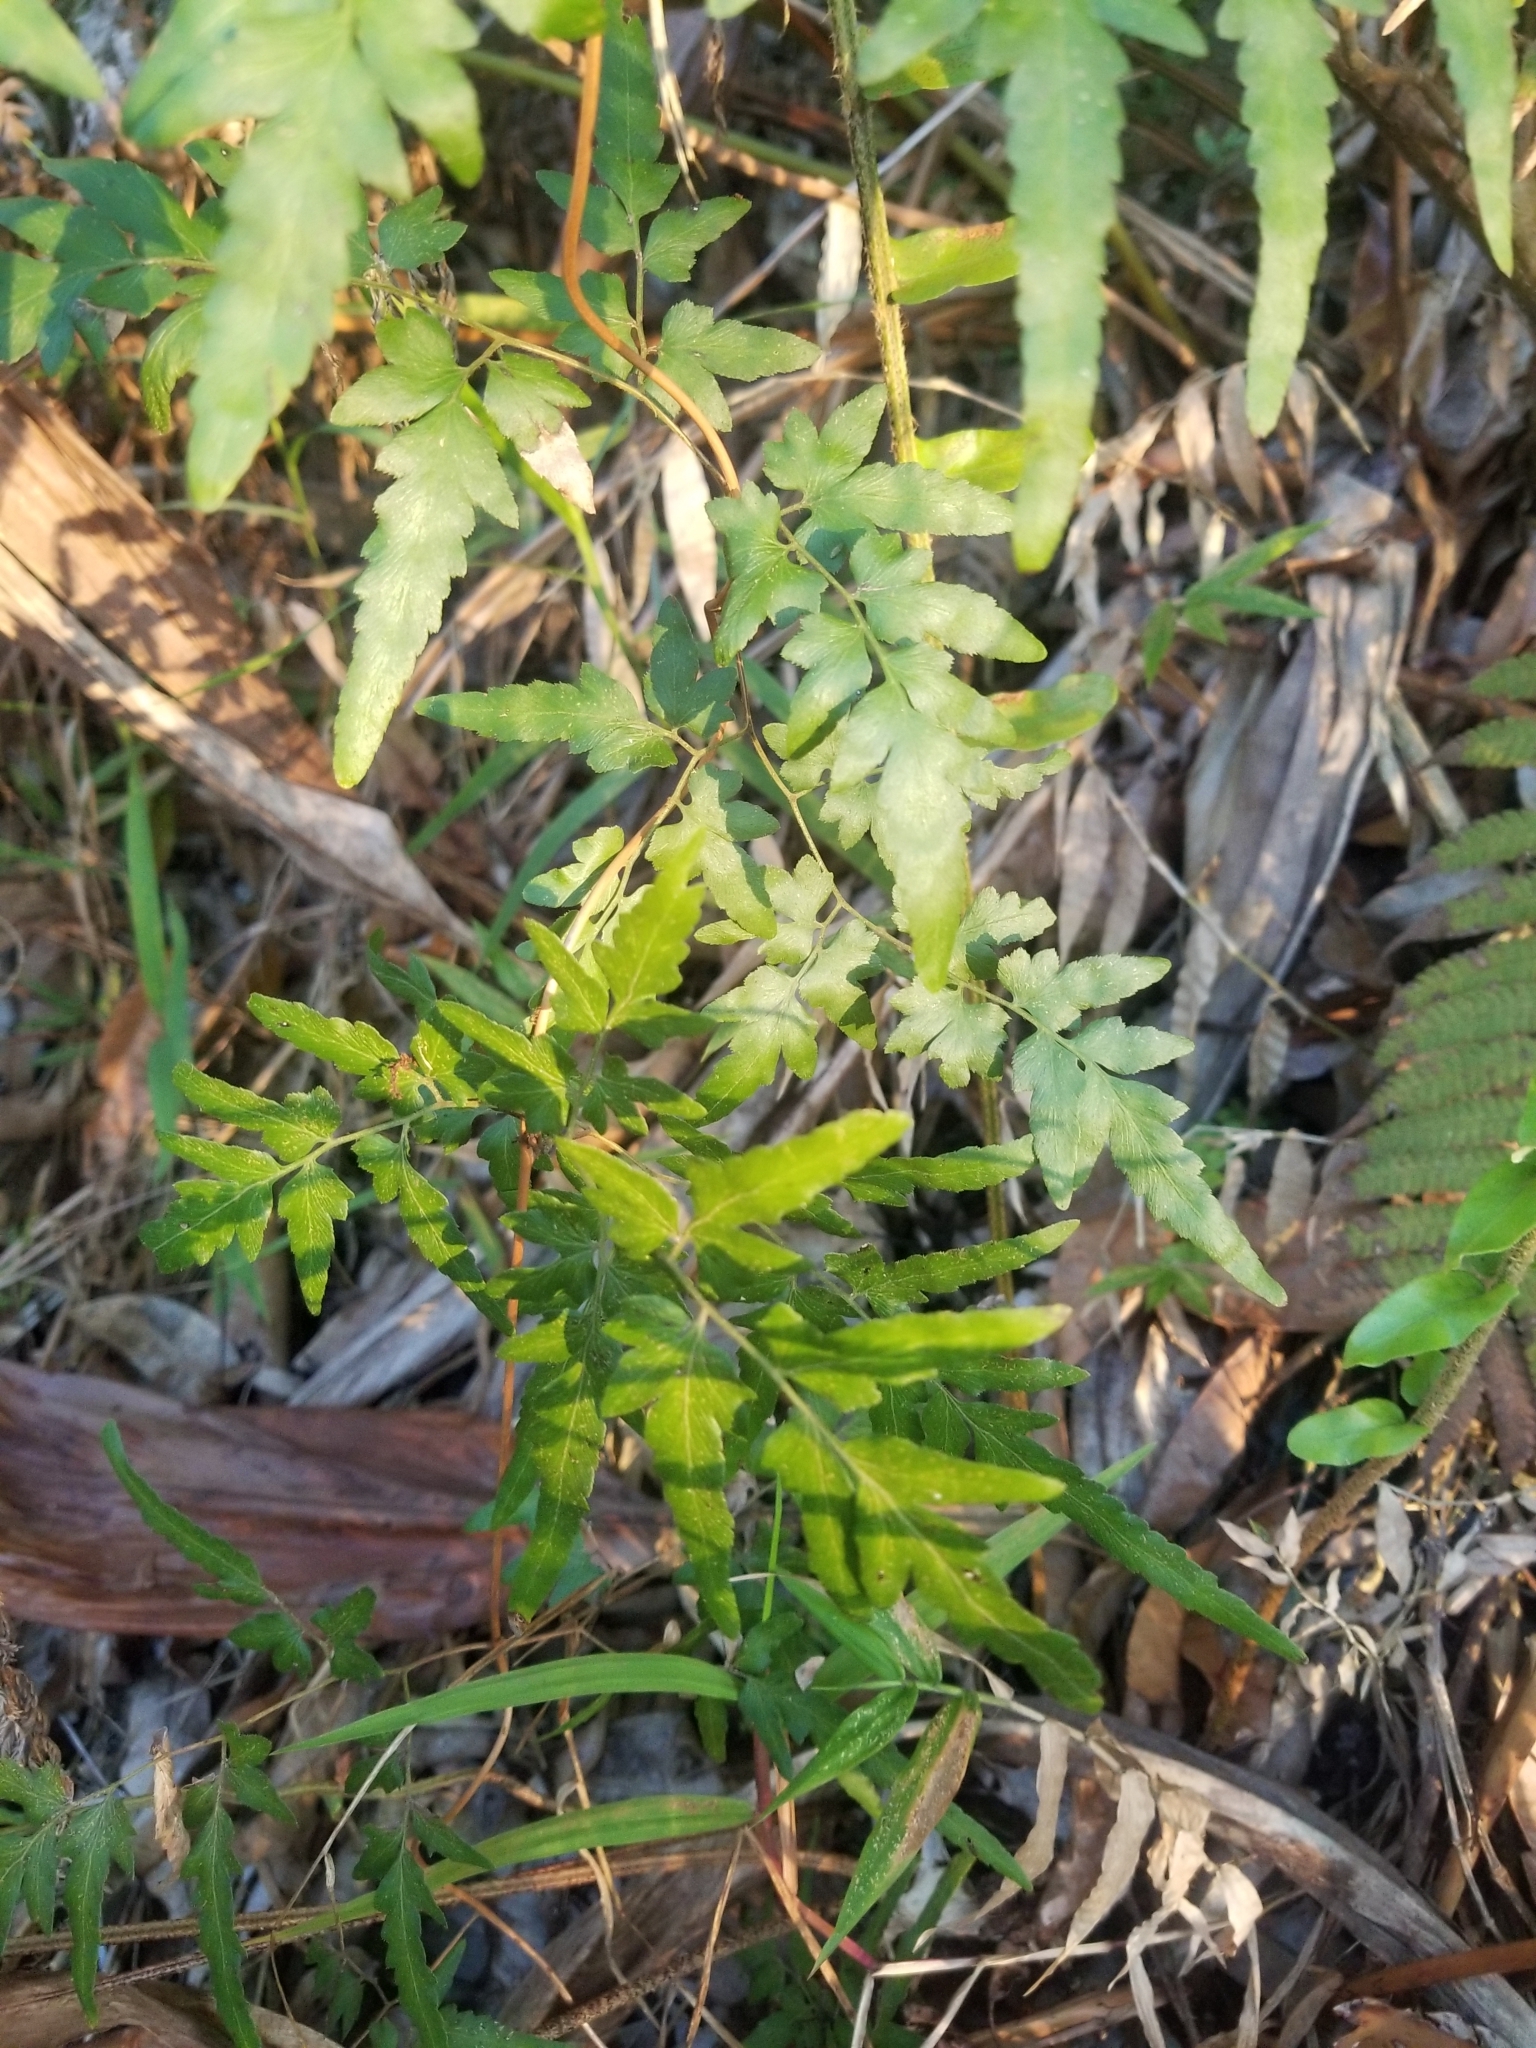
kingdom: Plantae
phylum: Tracheophyta
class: Polypodiopsida
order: Schizaeales
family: Lygodiaceae
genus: Lygodium
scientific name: Lygodium japonicum
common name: Japanese climbing fern
